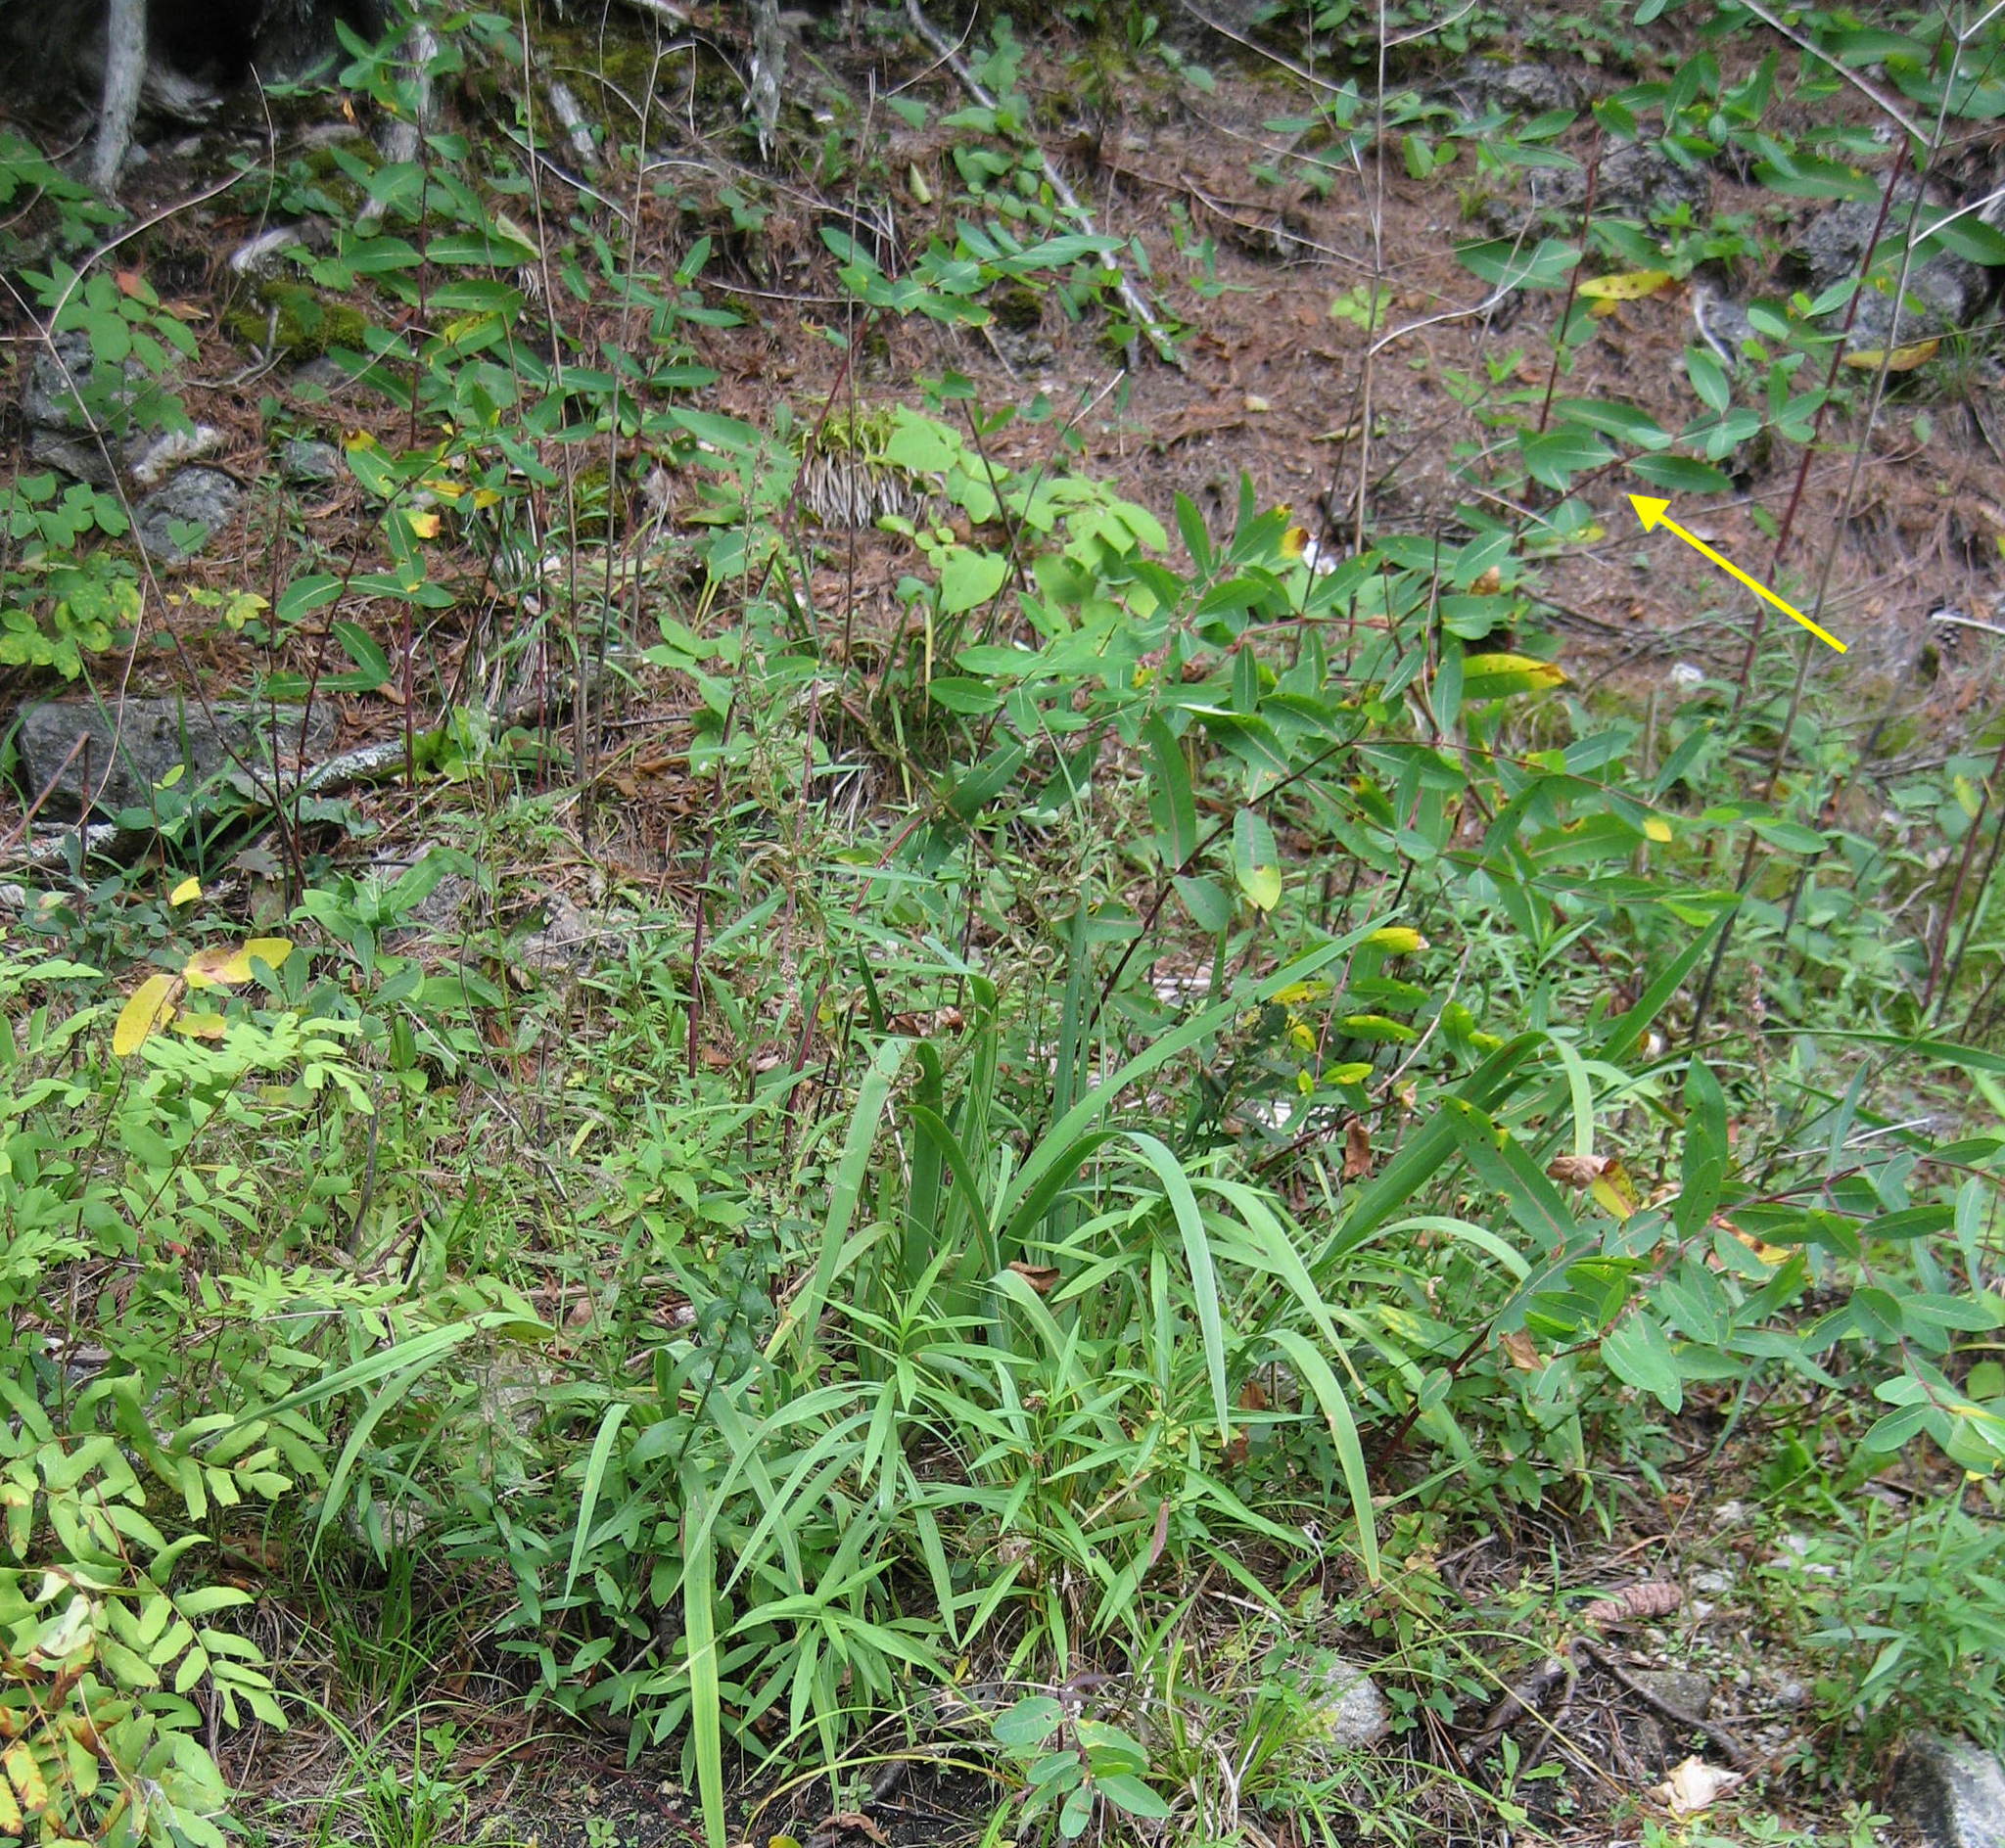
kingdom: Plantae
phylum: Tracheophyta
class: Magnoliopsida
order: Gentianales
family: Apocynaceae
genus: Apocynum
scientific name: Apocynum cannabinum
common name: Hemp dogbane
